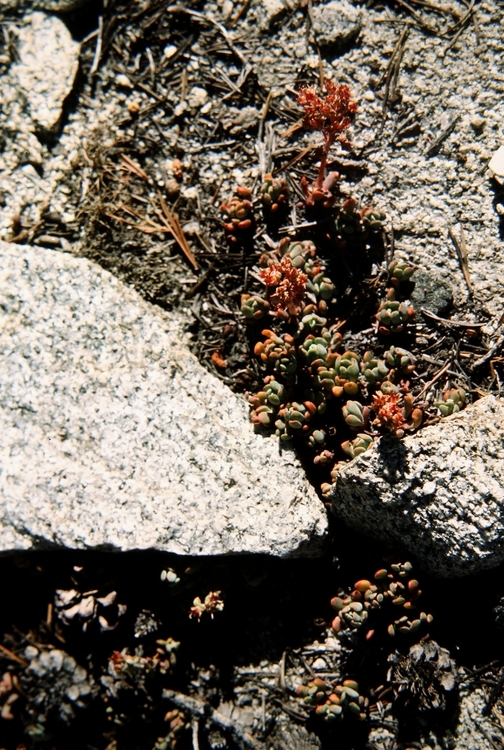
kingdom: Plantae
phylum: Tracheophyta
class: Magnoliopsida
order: Saxifragales
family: Crassulaceae
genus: Sedum
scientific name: Sedum obtusatum
